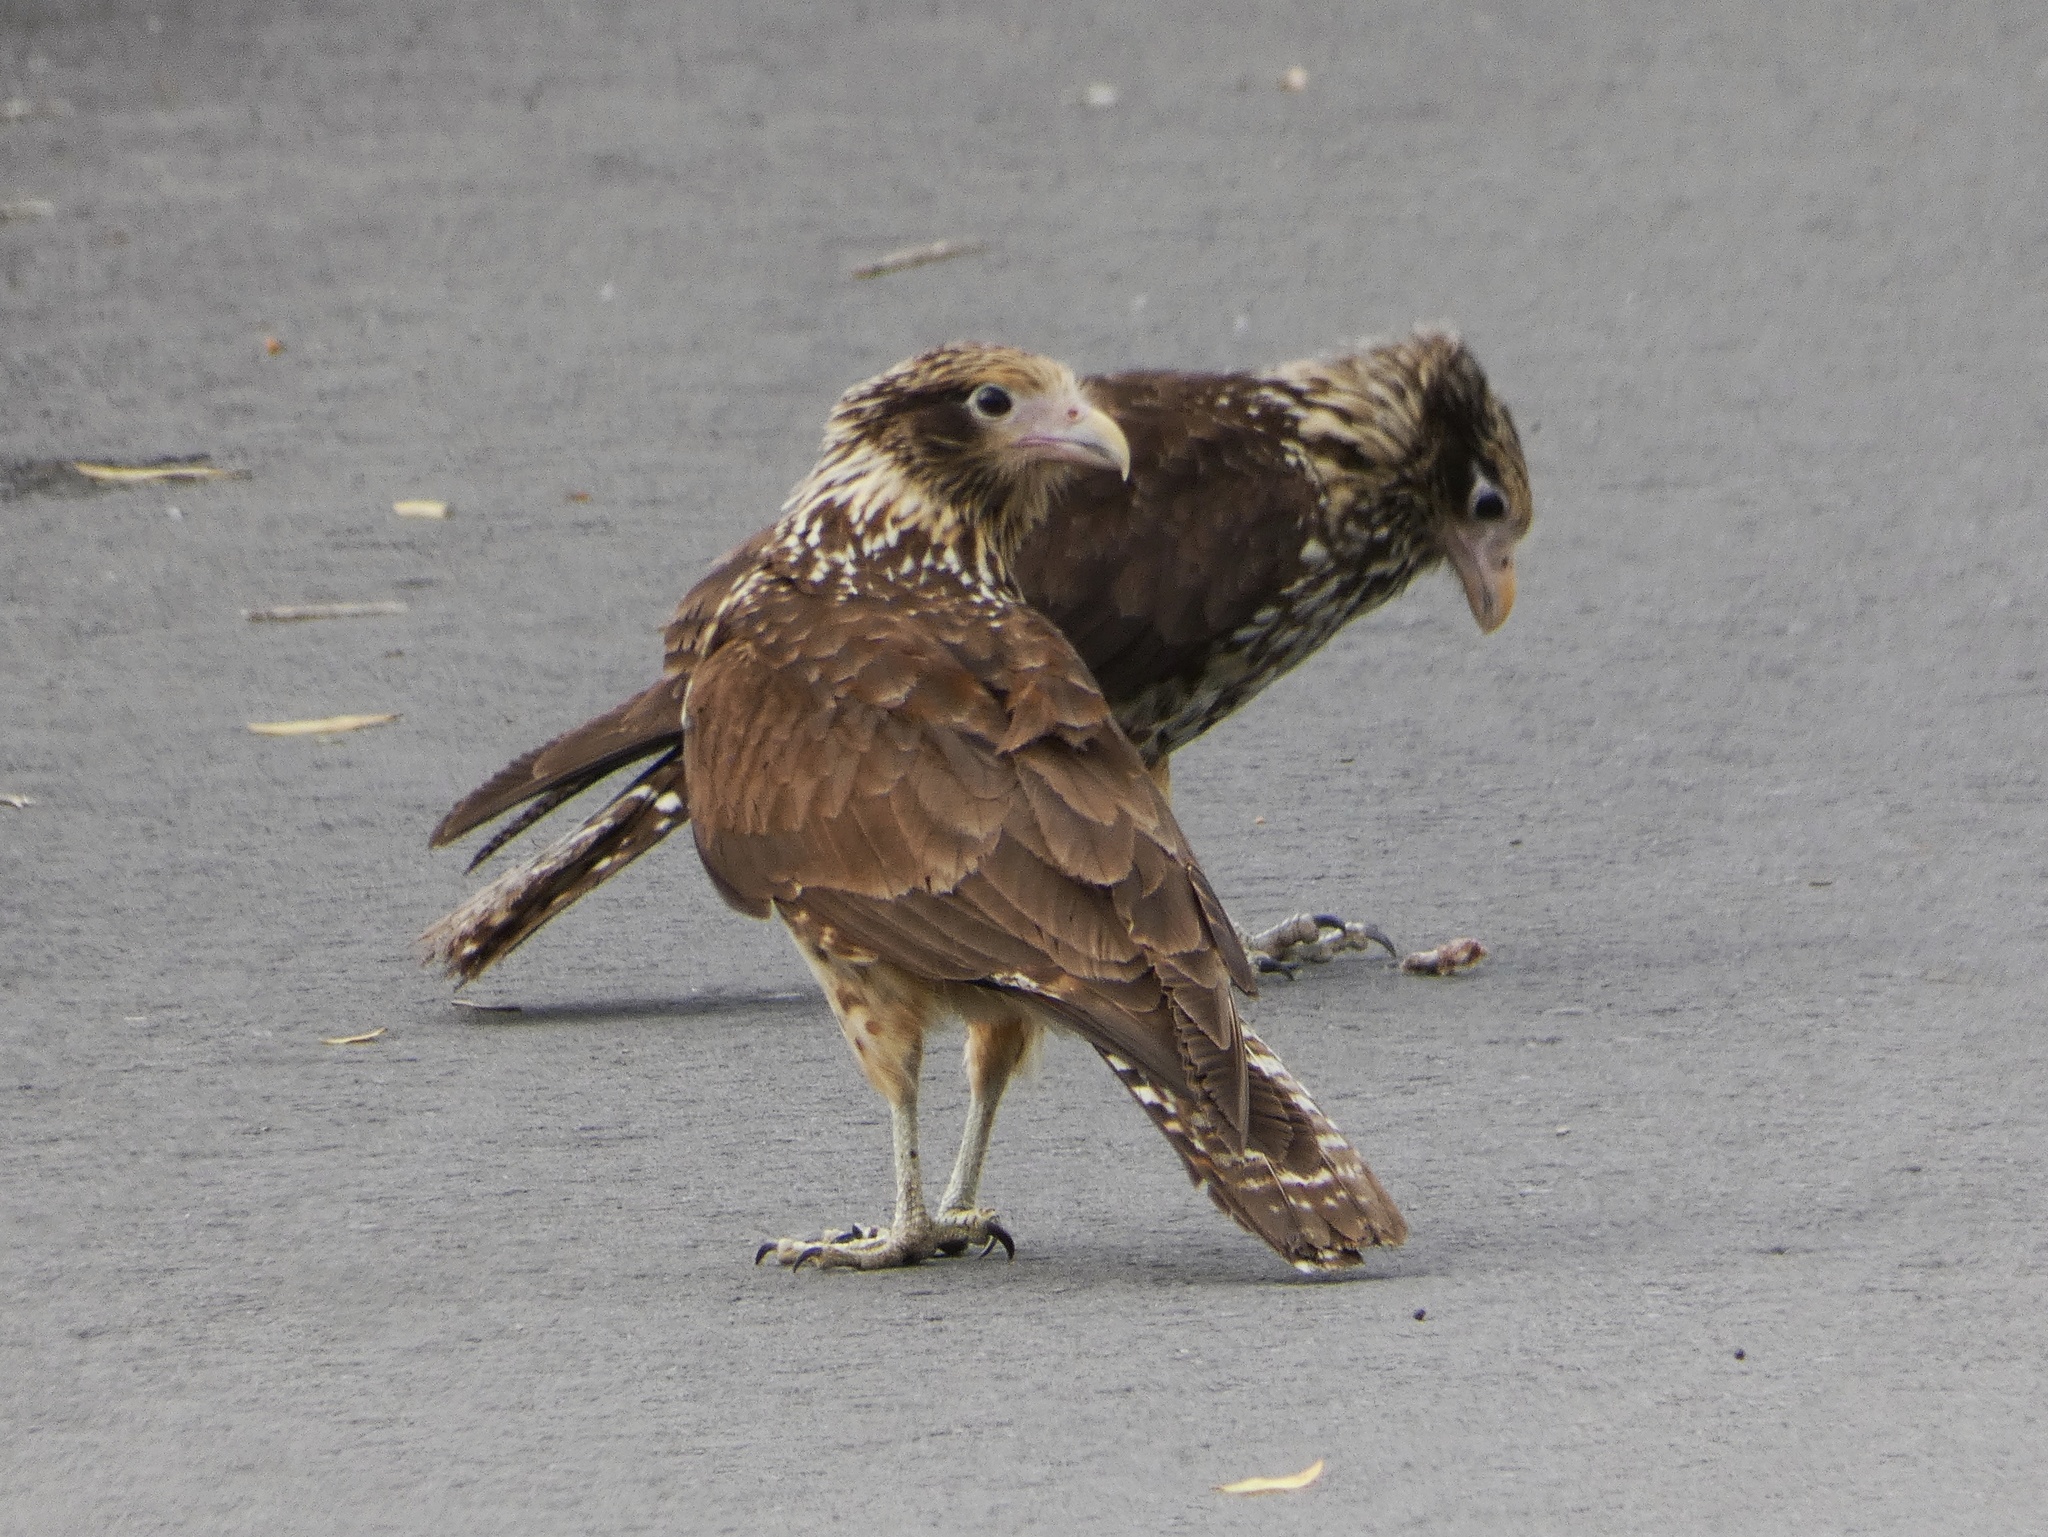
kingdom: Animalia
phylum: Chordata
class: Aves
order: Falconiformes
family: Falconidae
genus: Daptrius
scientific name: Daptrius
